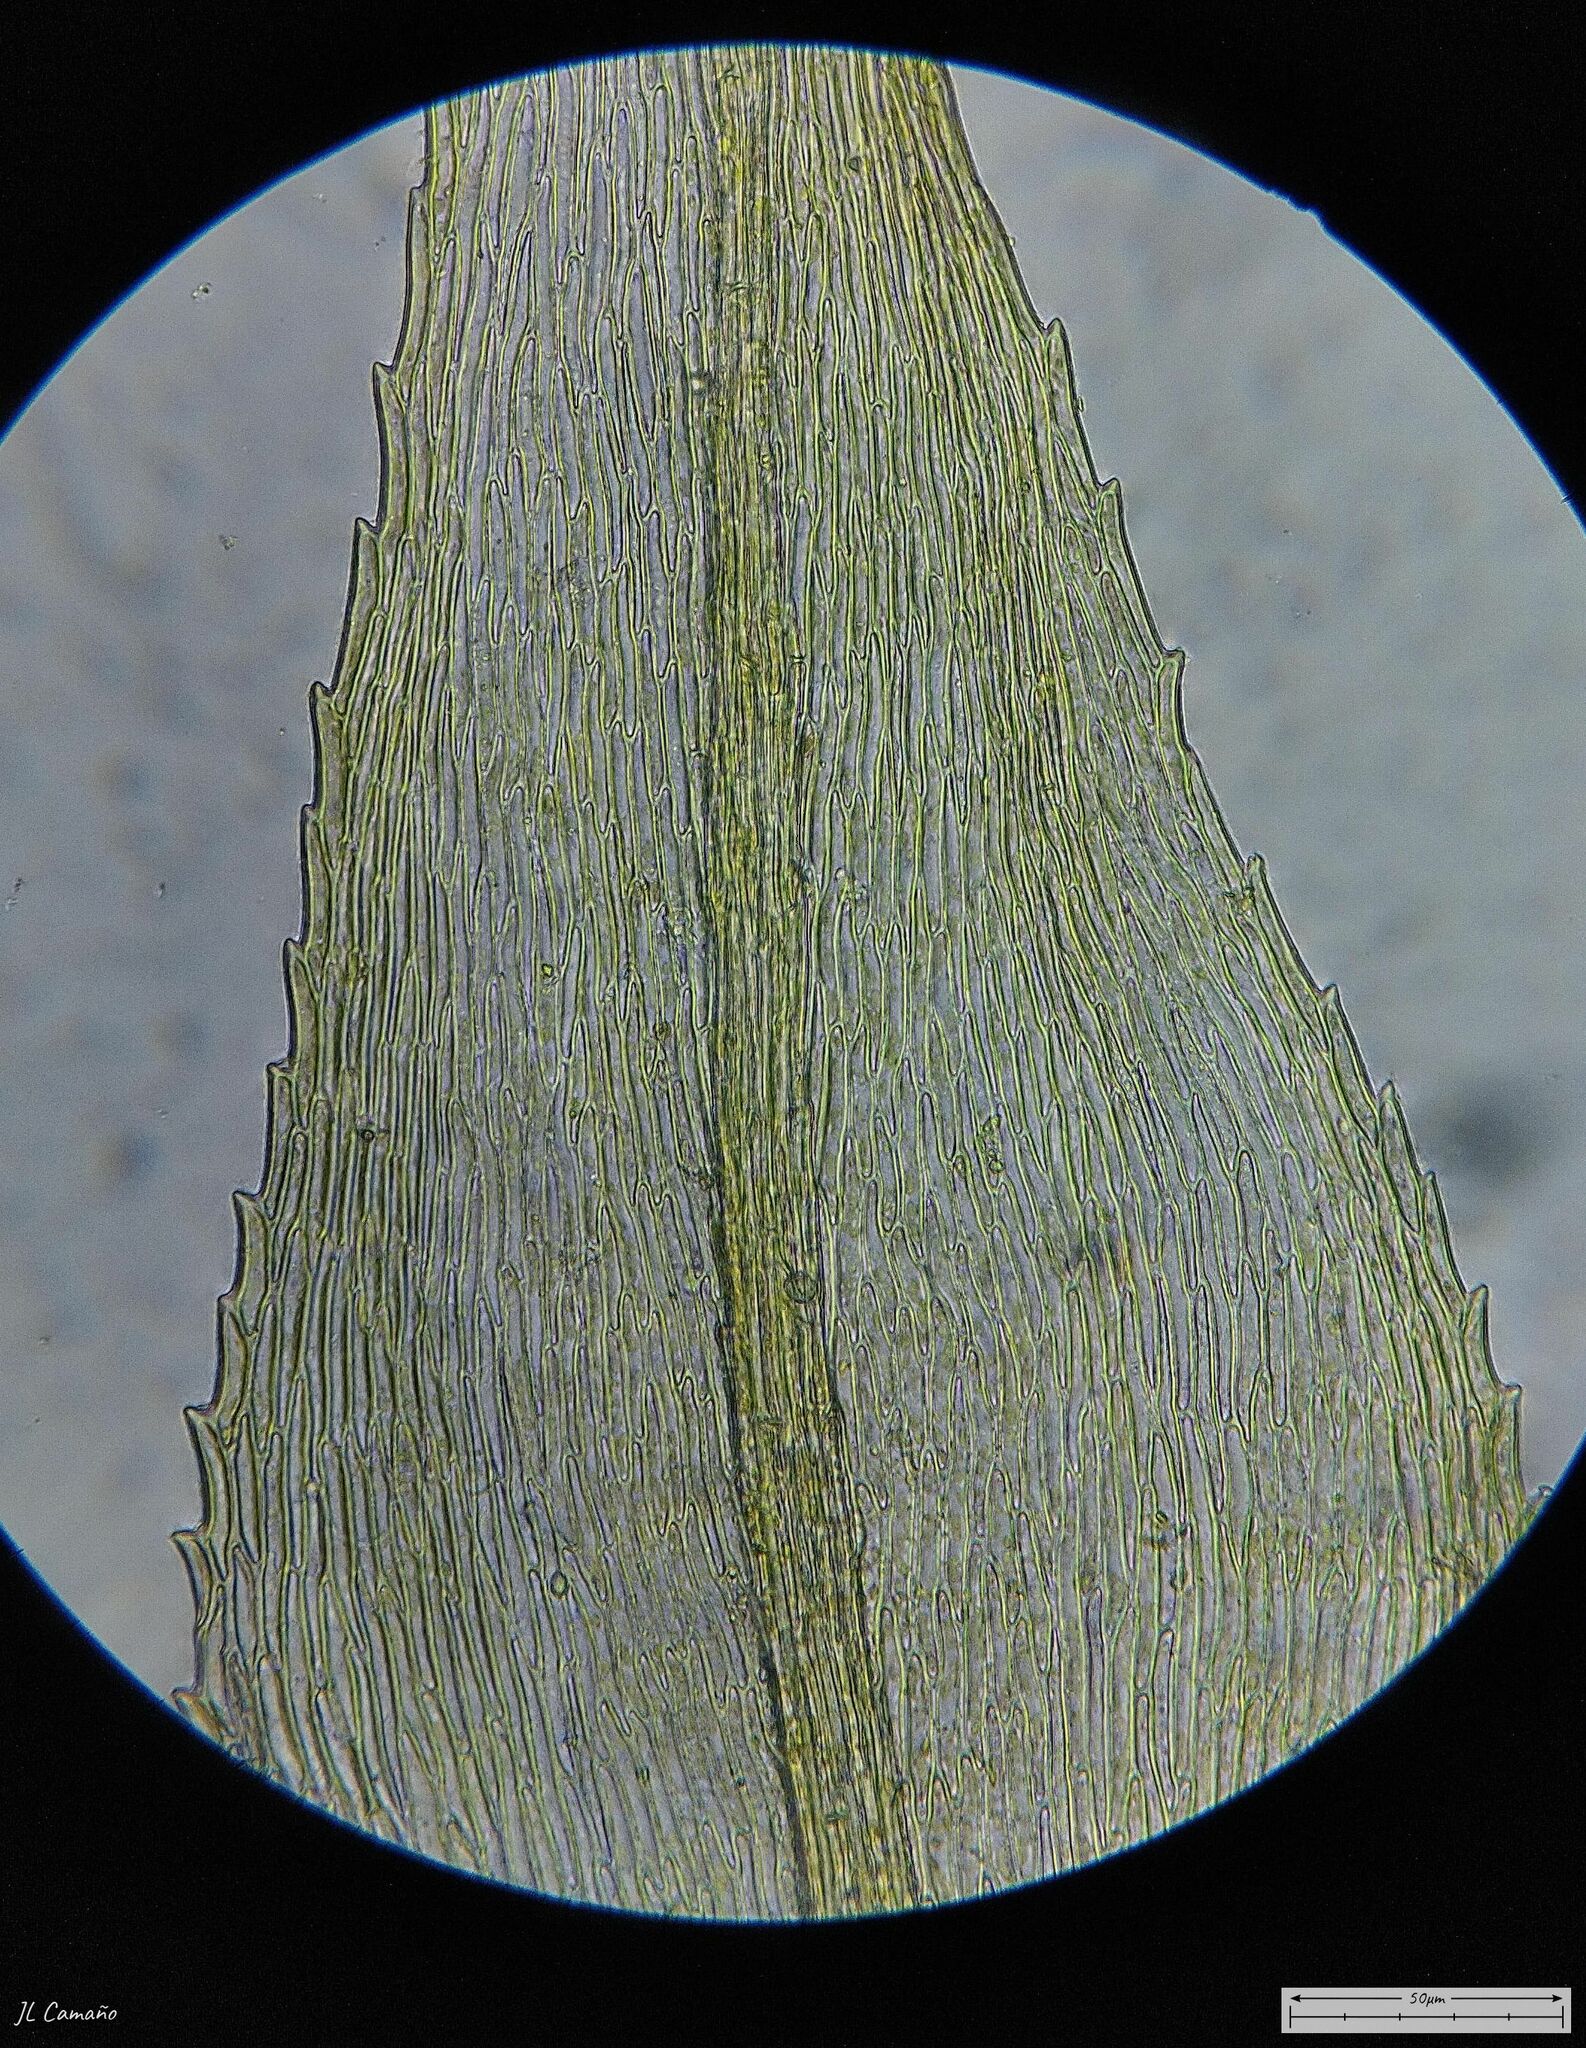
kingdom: Plantae
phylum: Bryophyta
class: Bryopsida
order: Hypnales
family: Brachytheciaceae
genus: Kindbergia
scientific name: Kindbergia praelonga
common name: Slender beaked moss
